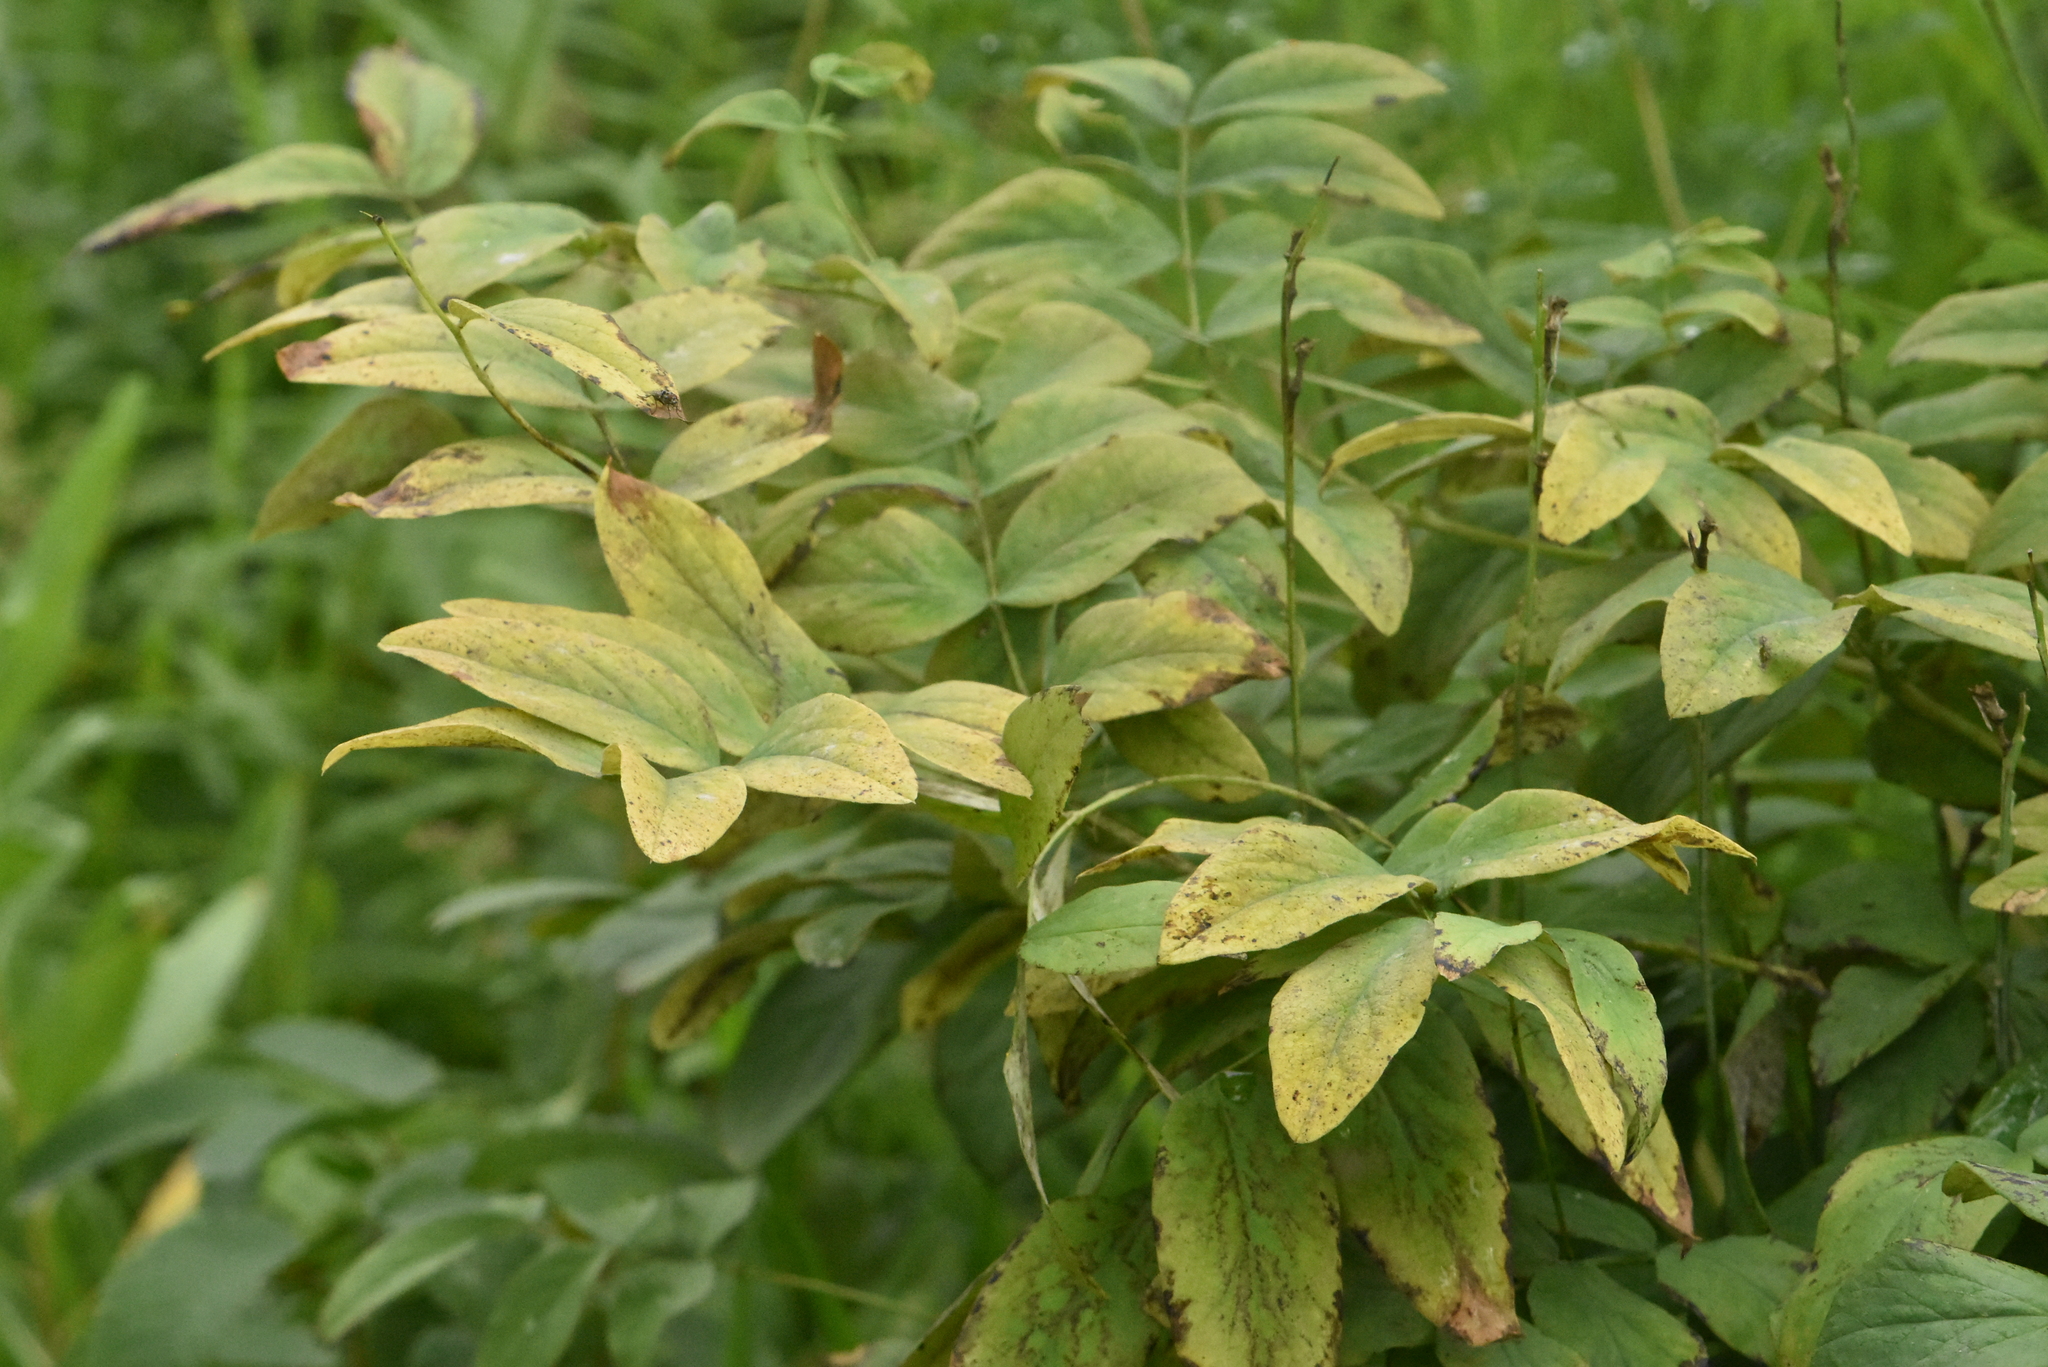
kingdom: Plantae
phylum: Tracheophyta
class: Magnoliopsida
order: Fabales
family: Fabaceae
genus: Lathyrus
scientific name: Lathyrus gmelinii
